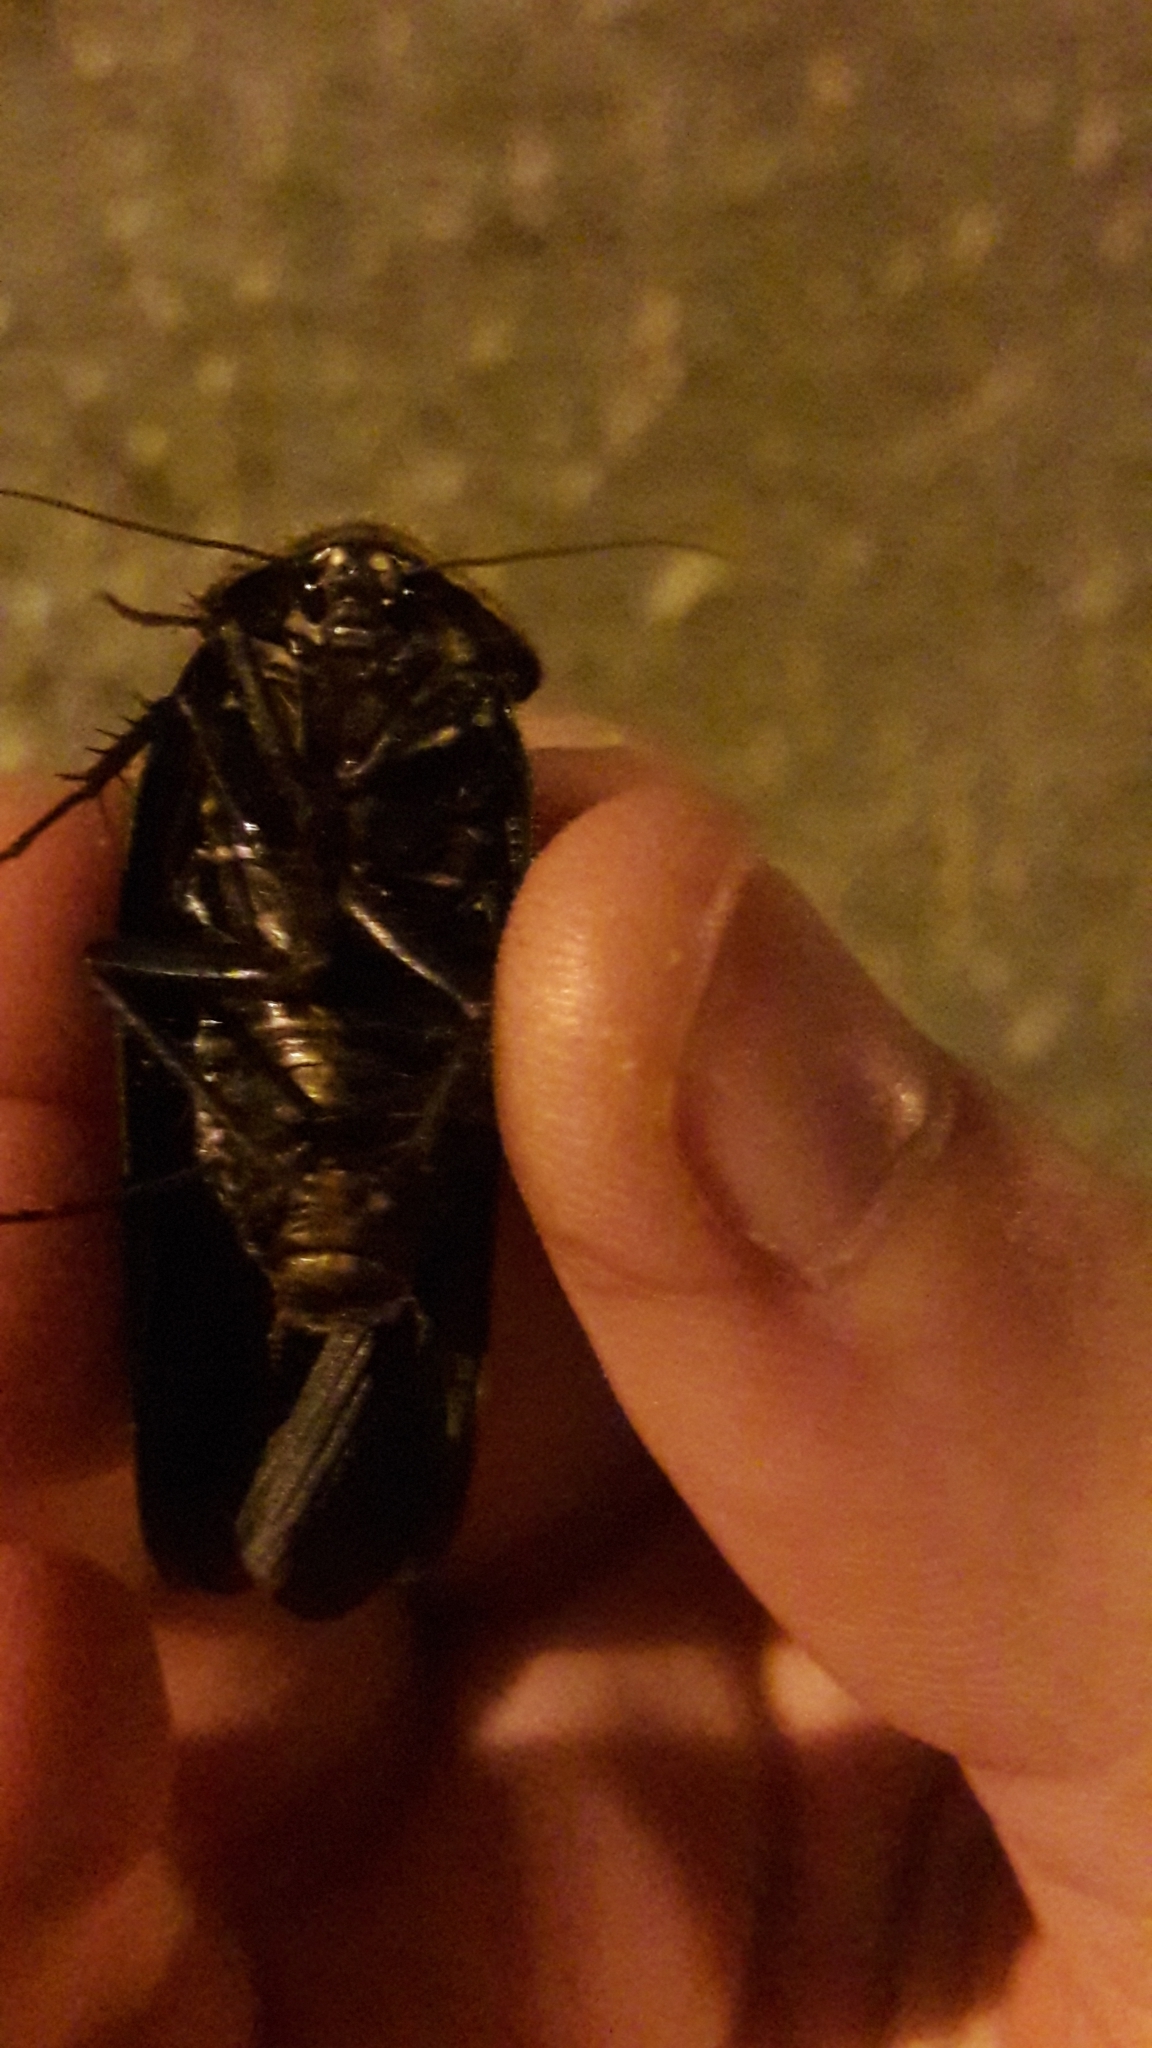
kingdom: Animalia
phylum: Arthropoda
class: Insecta
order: Blattodea
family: Corydiidae
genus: Polyphaga
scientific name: Polyphaga aegyptiaca
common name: Egyptian cockroach
